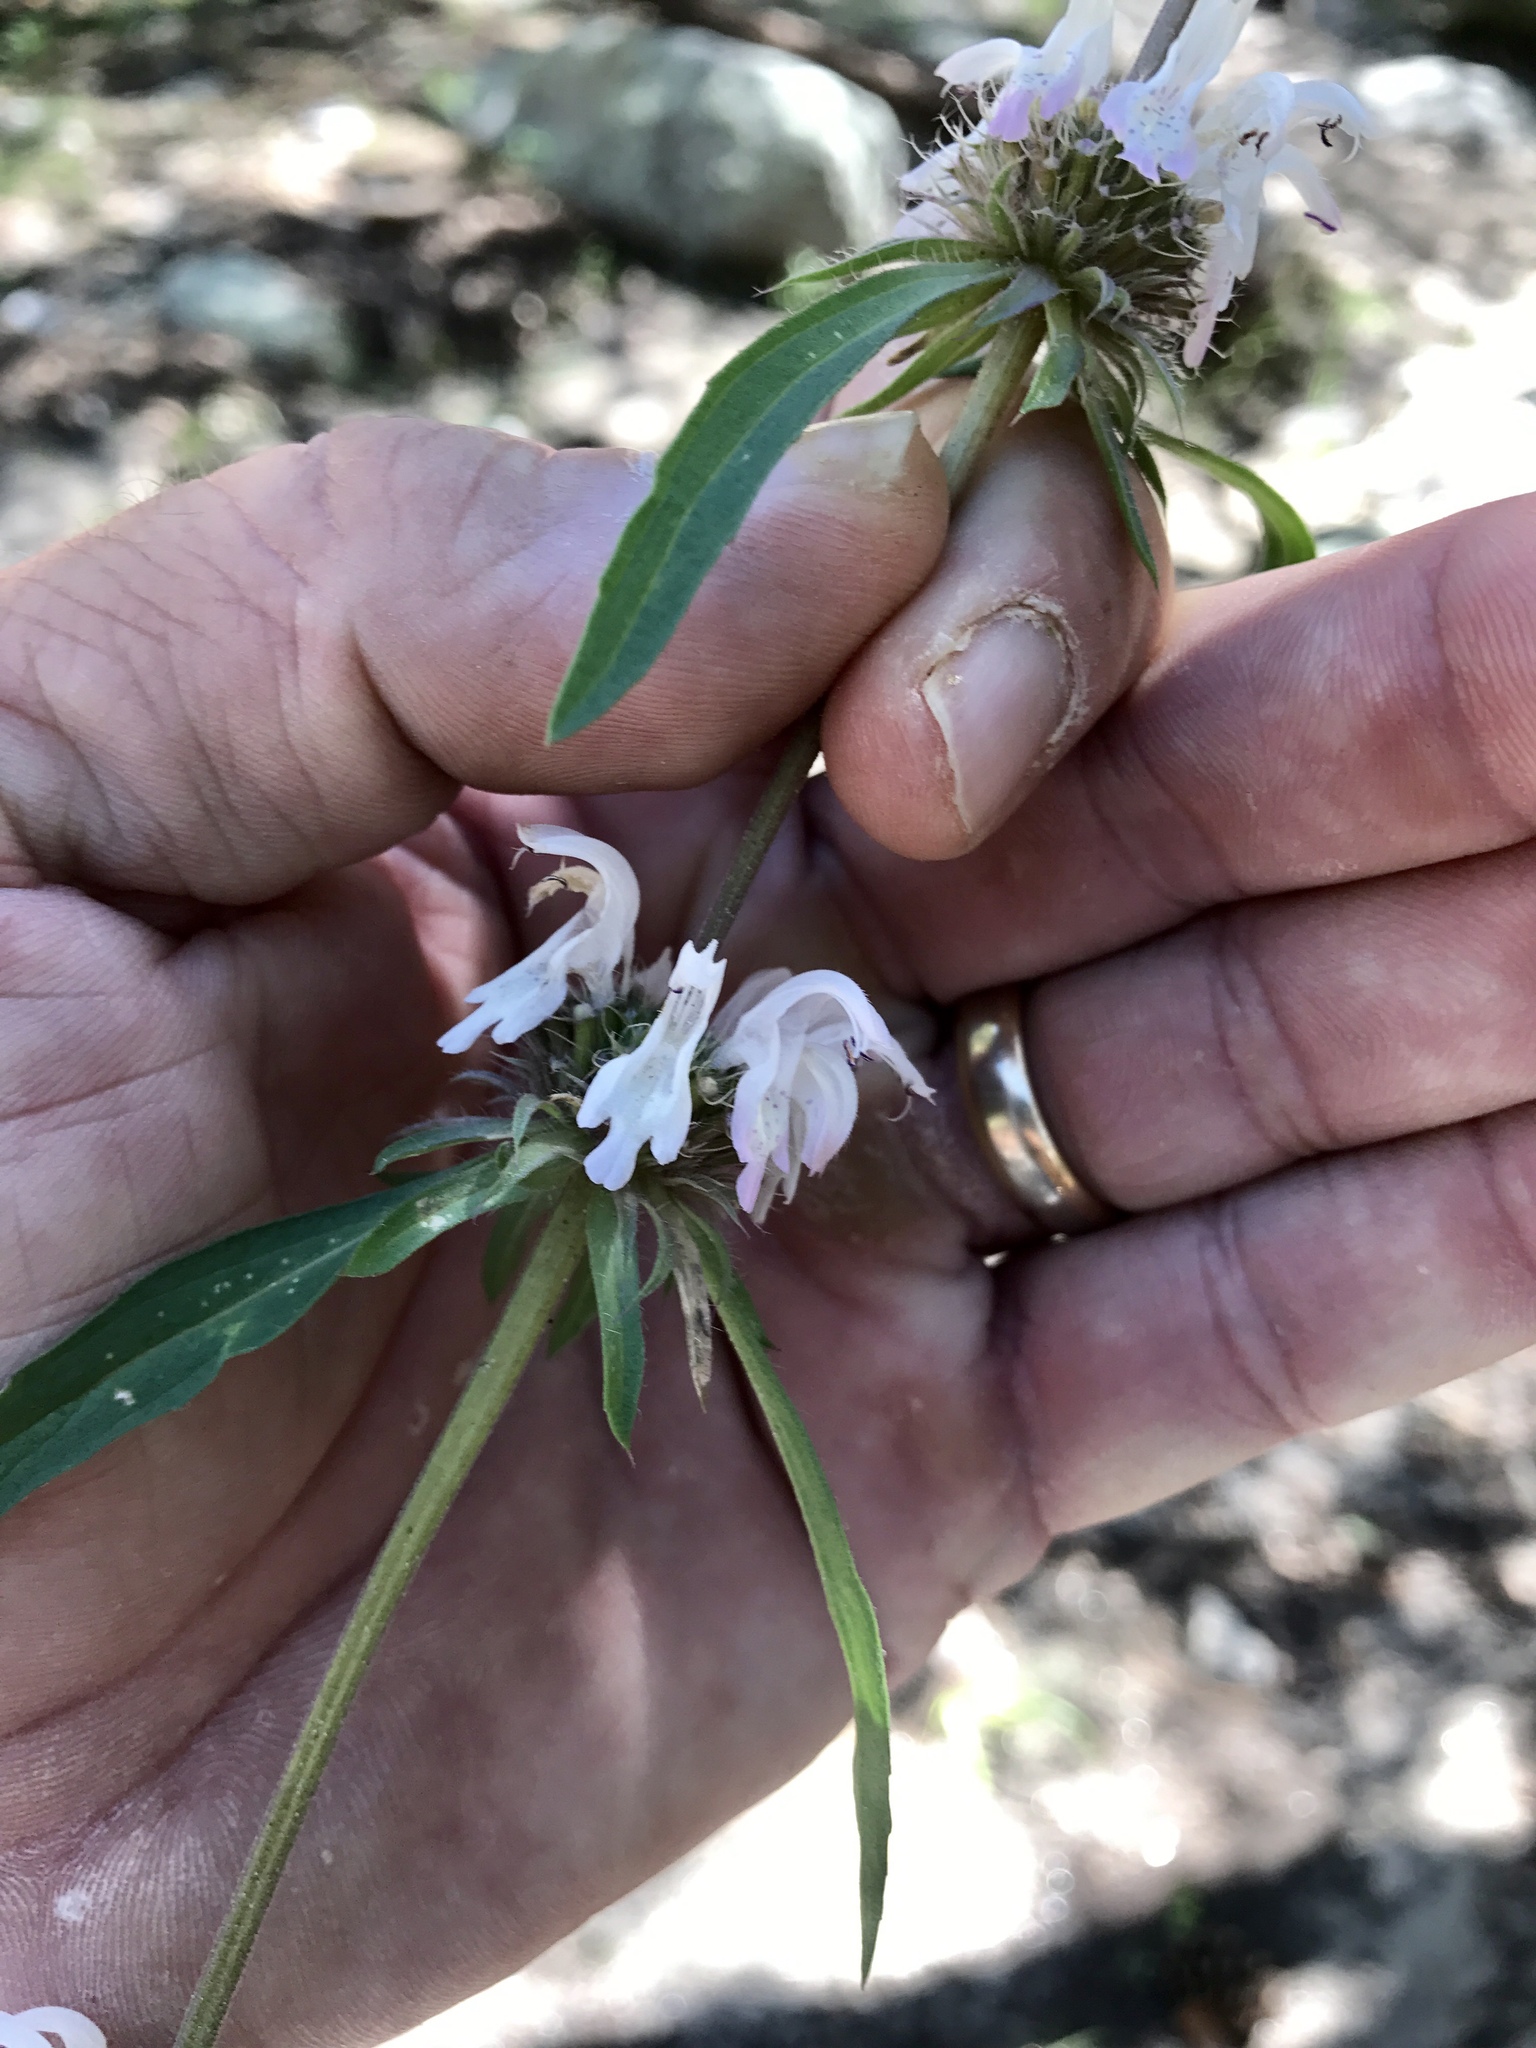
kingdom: Plantae
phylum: Tracheophyta
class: Magnoliopsida
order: Lamiales
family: Lamiaceae
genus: Monarda
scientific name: Monarda citriodora
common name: Lemon beebalm
